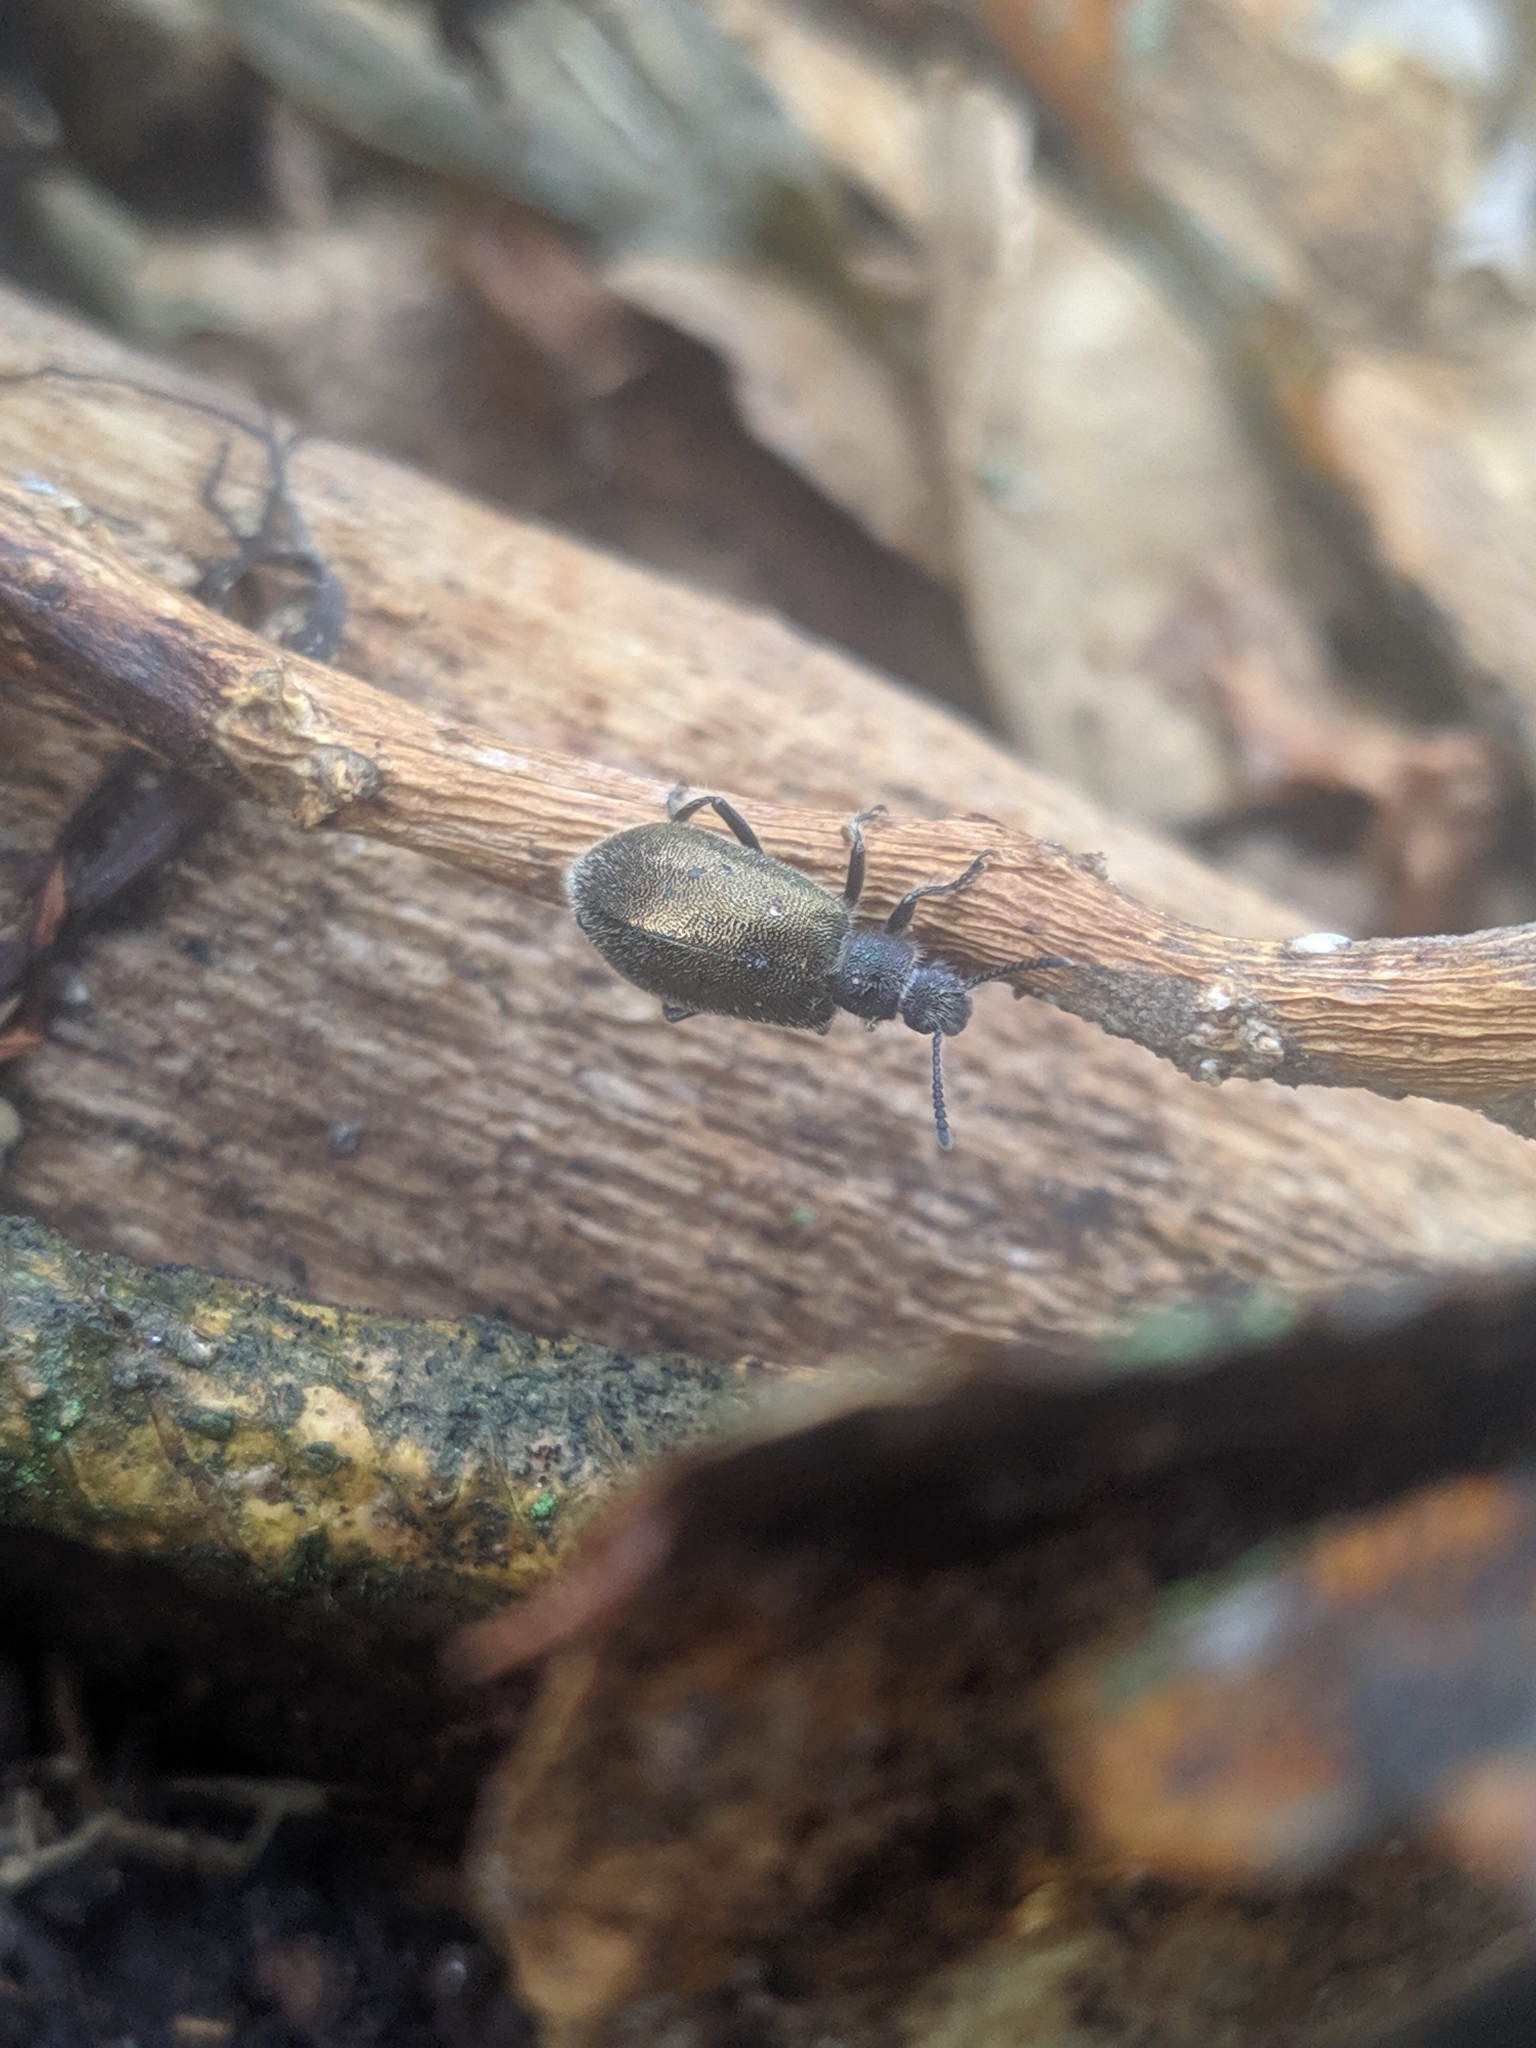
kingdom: Animalia
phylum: Arthropoda
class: Insecta
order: Coleoptera
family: Tenebrionidae
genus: Lagria
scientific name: Lagria villosa
